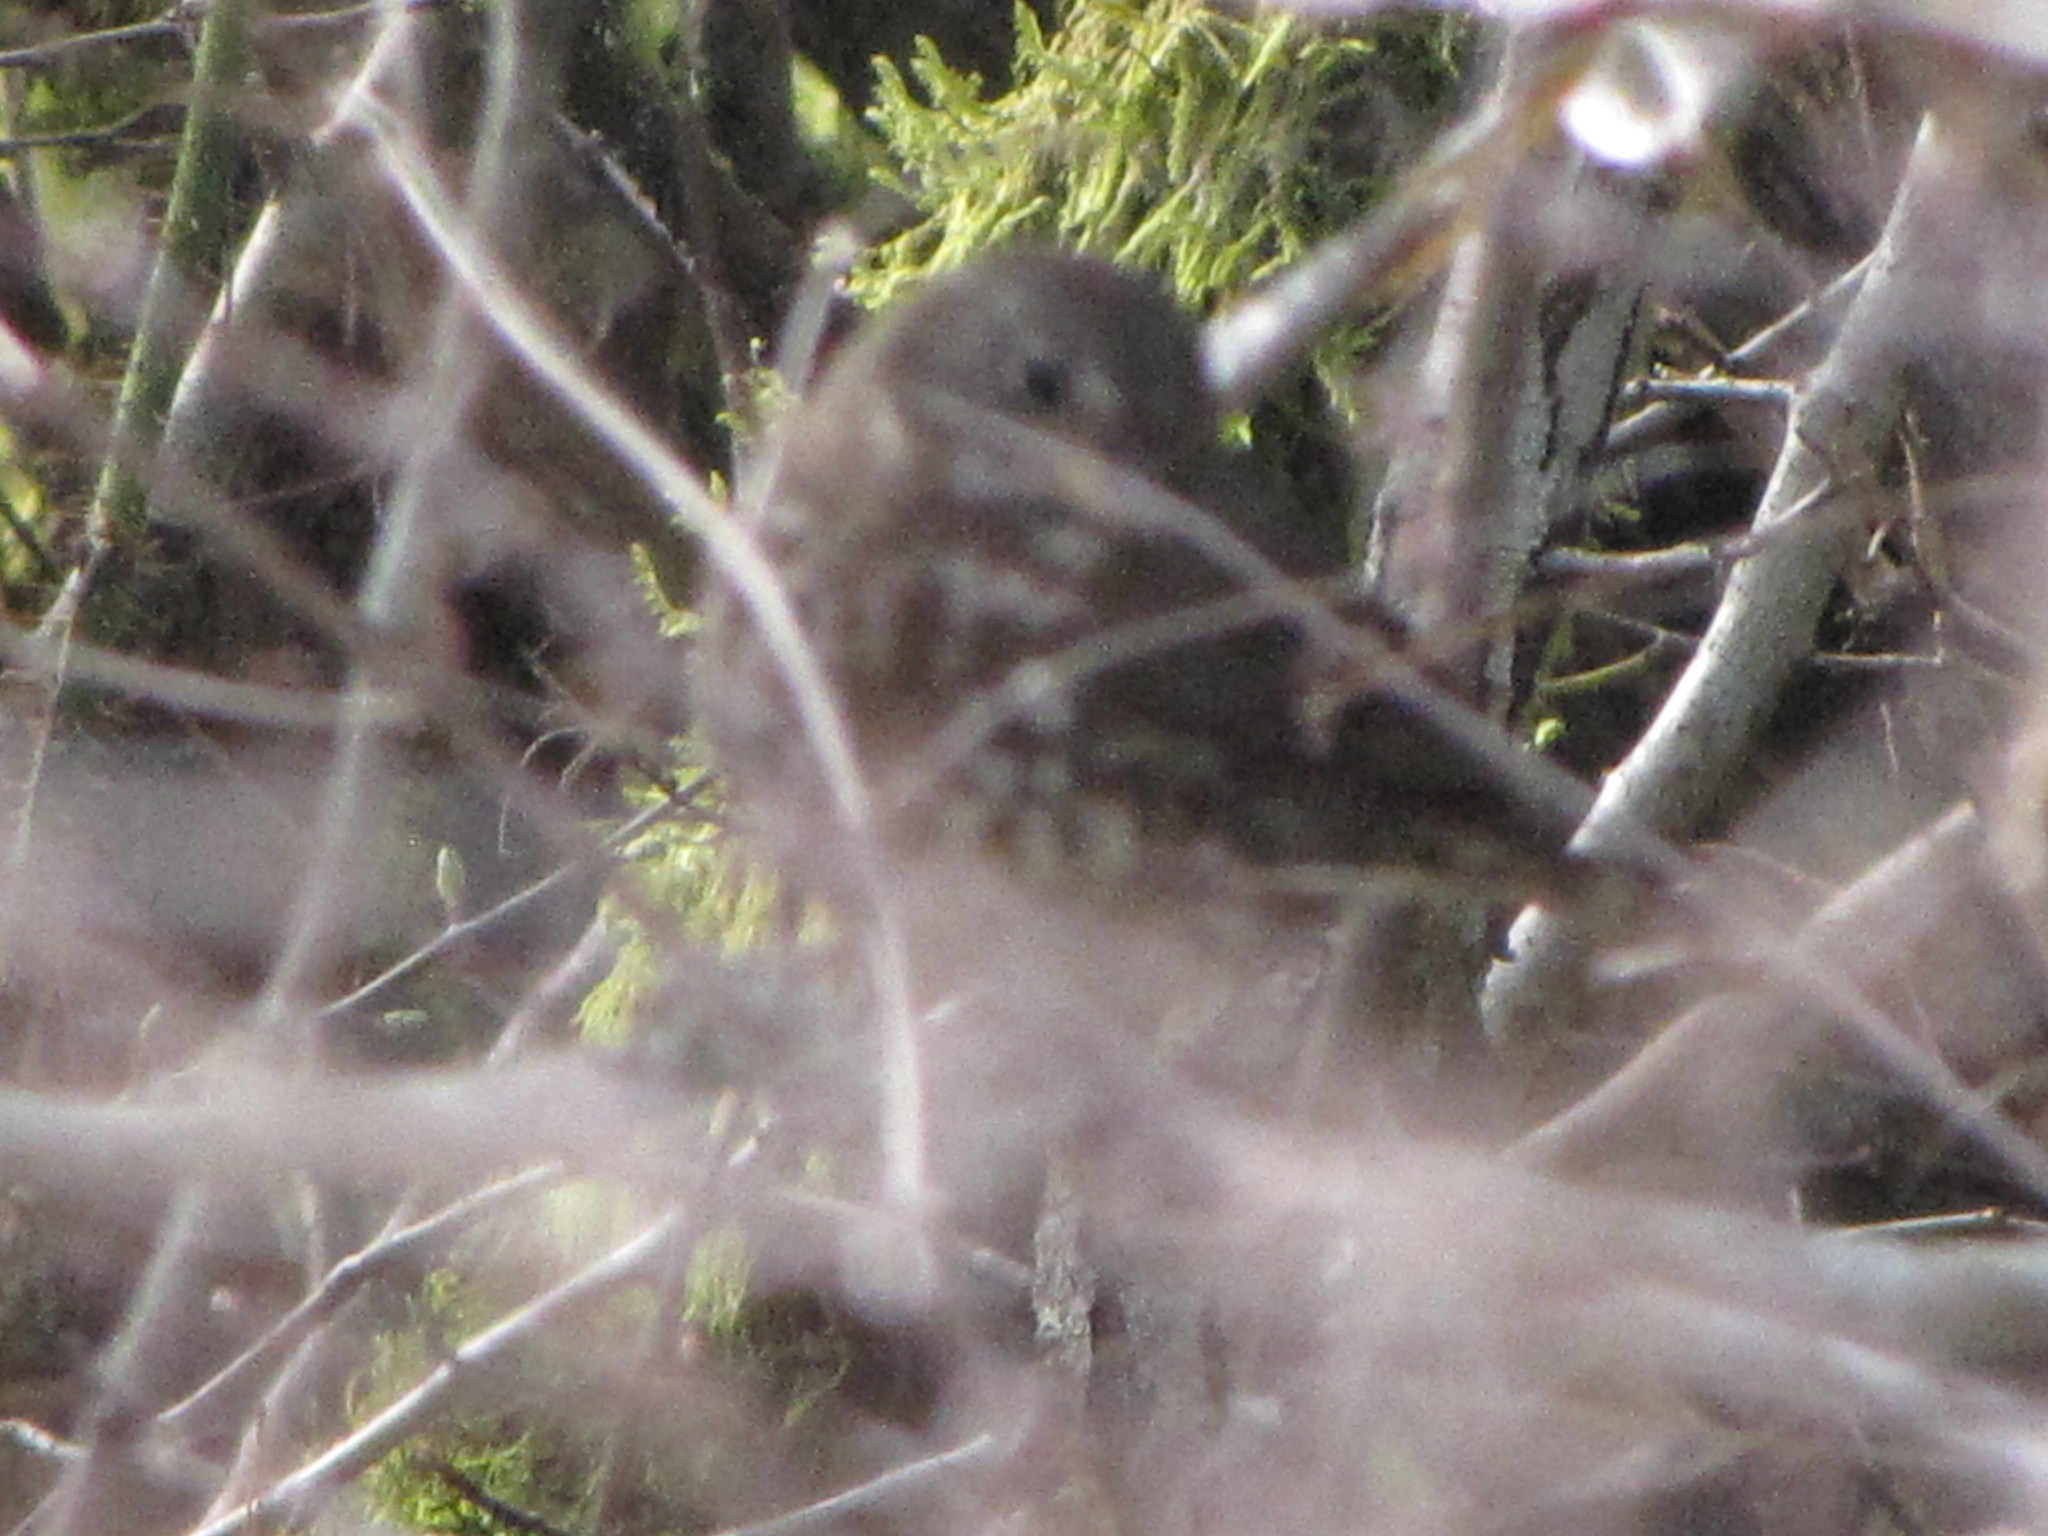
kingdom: Animalia
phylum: Chordata
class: Aves
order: Passeriformes
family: Passerellidae
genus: Passerella
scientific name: Passerella iliaca
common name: Fox sparrow
